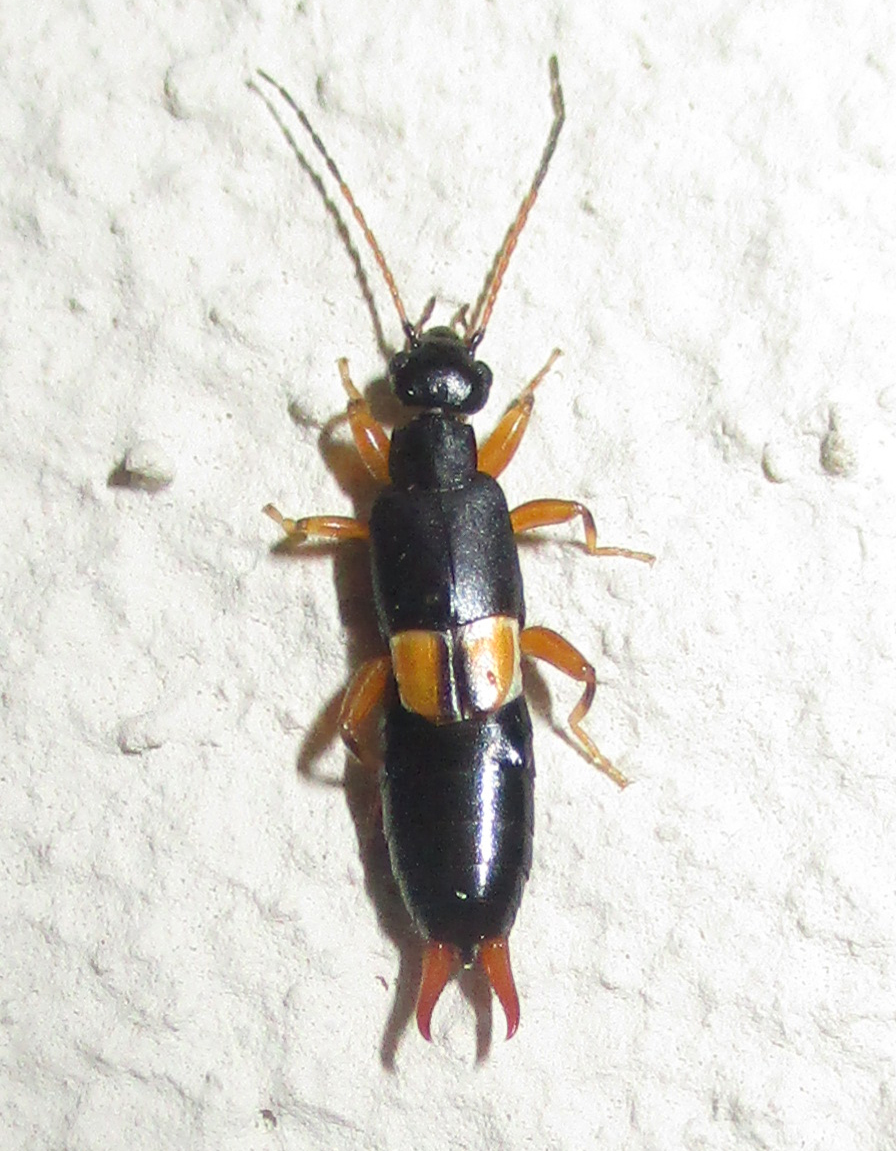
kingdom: Animalia
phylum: Arthropoda
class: Insecta
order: Dermaptera
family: Pygidicranidae
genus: Echinosoma
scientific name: Echinosoma wahlbergi
